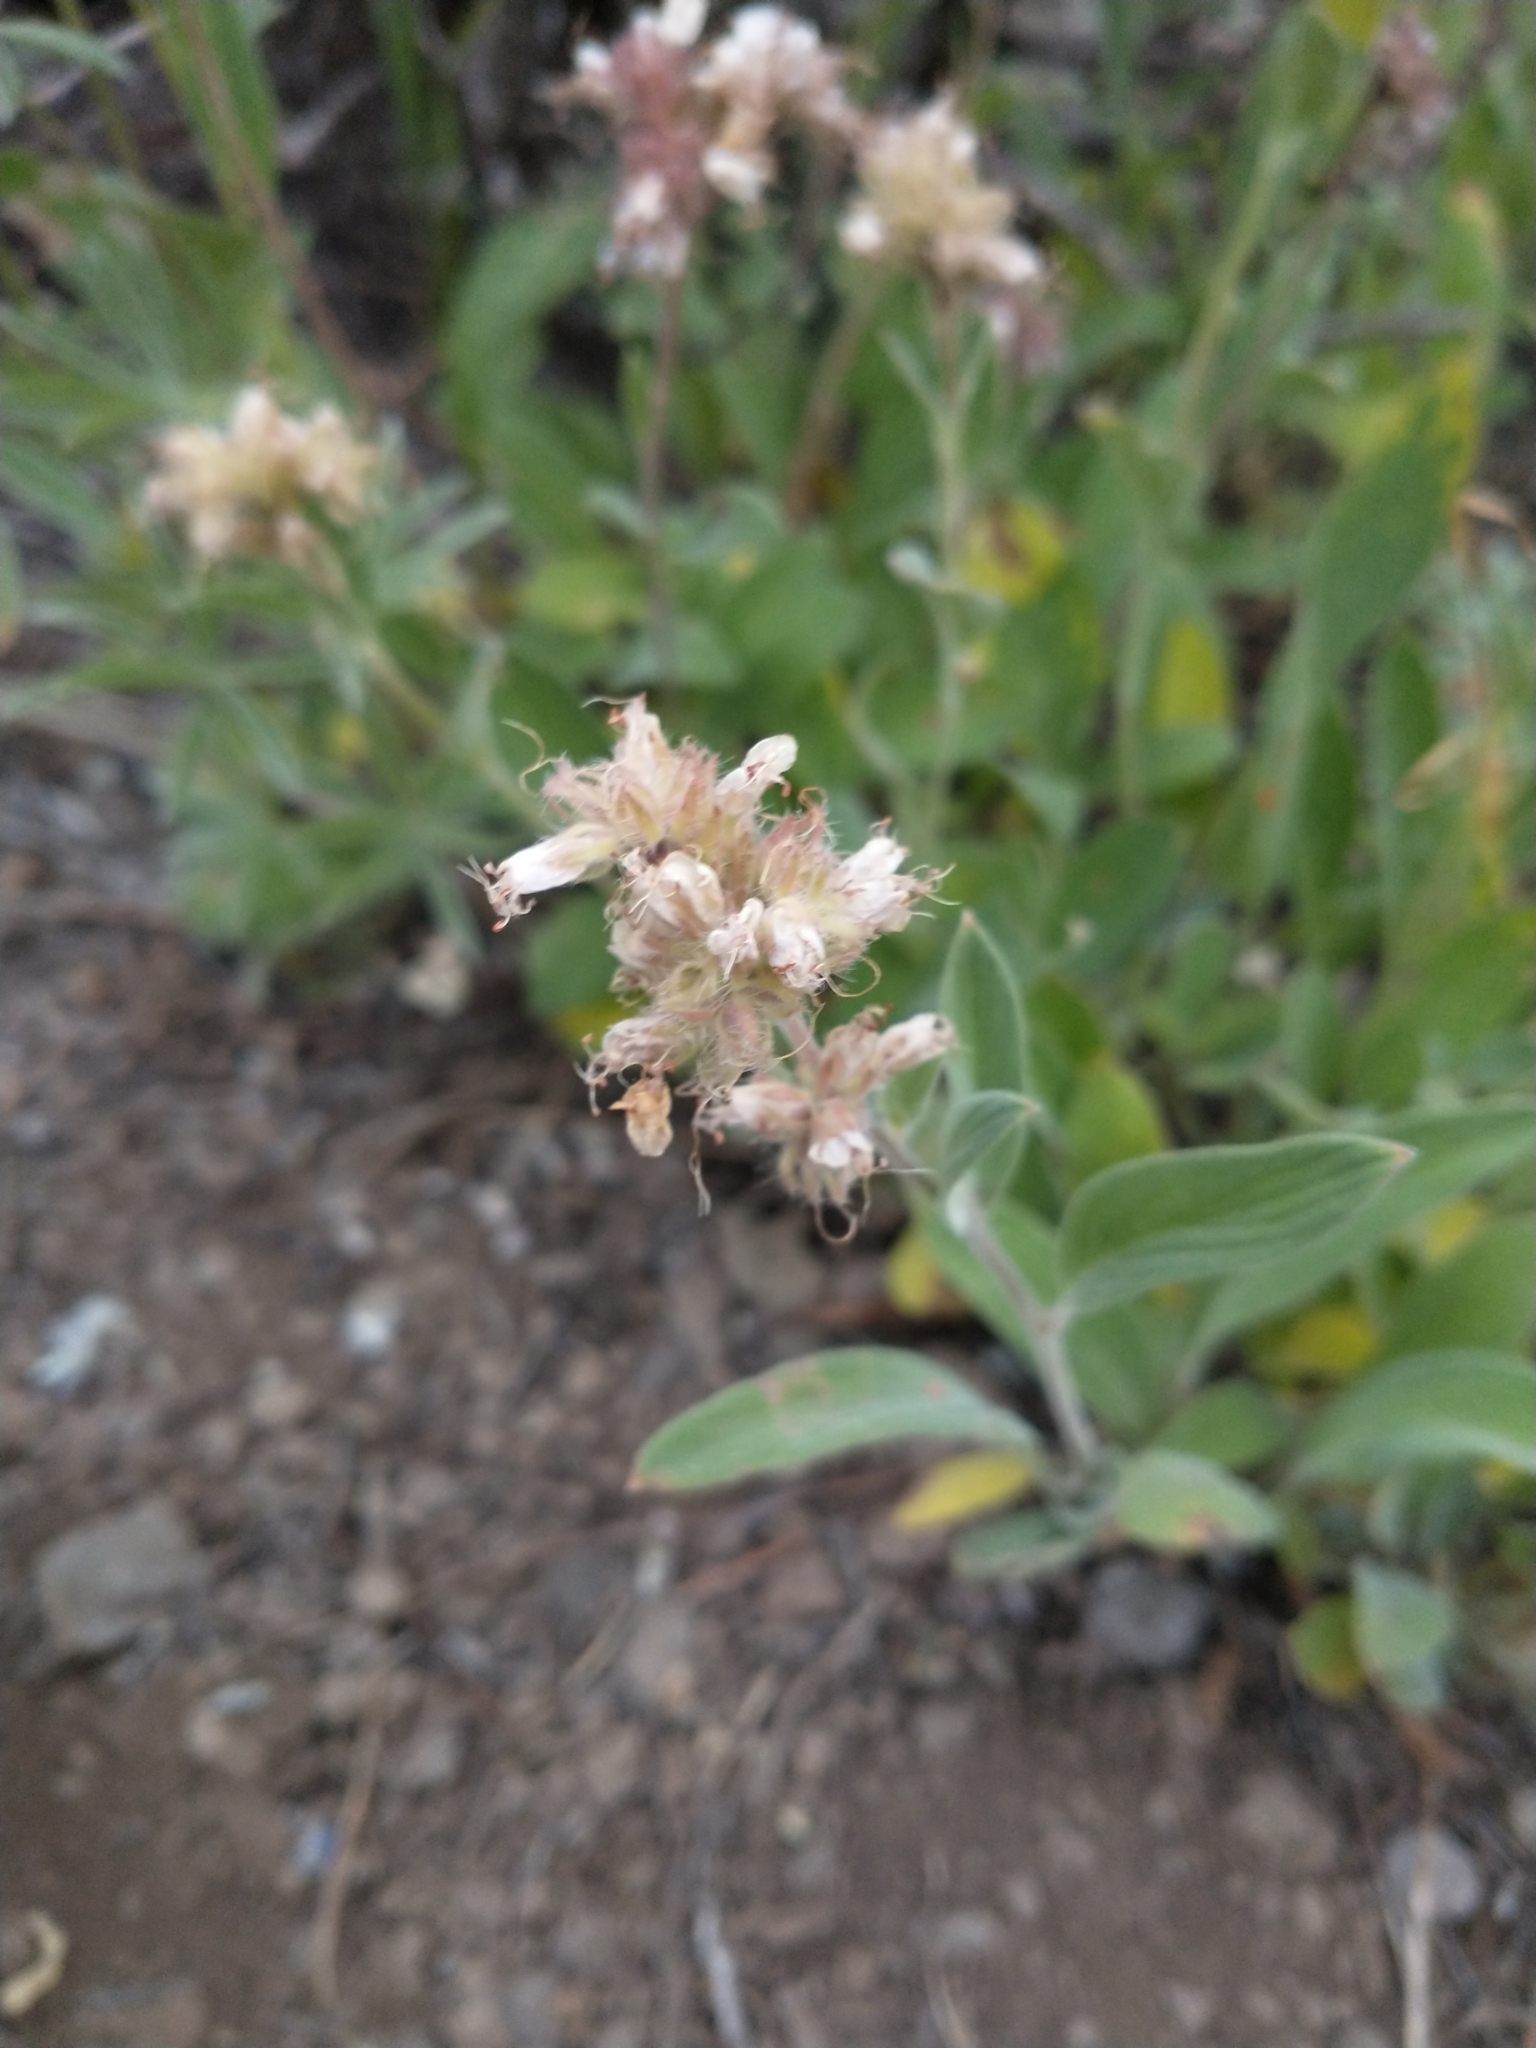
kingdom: Plantae
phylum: Tracheophyta
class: Magnoliopsida
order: Boraginales
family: Hydrophyllaceae
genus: Phacelia
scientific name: Phacelia hastata
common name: Silver-leaved phacelia
